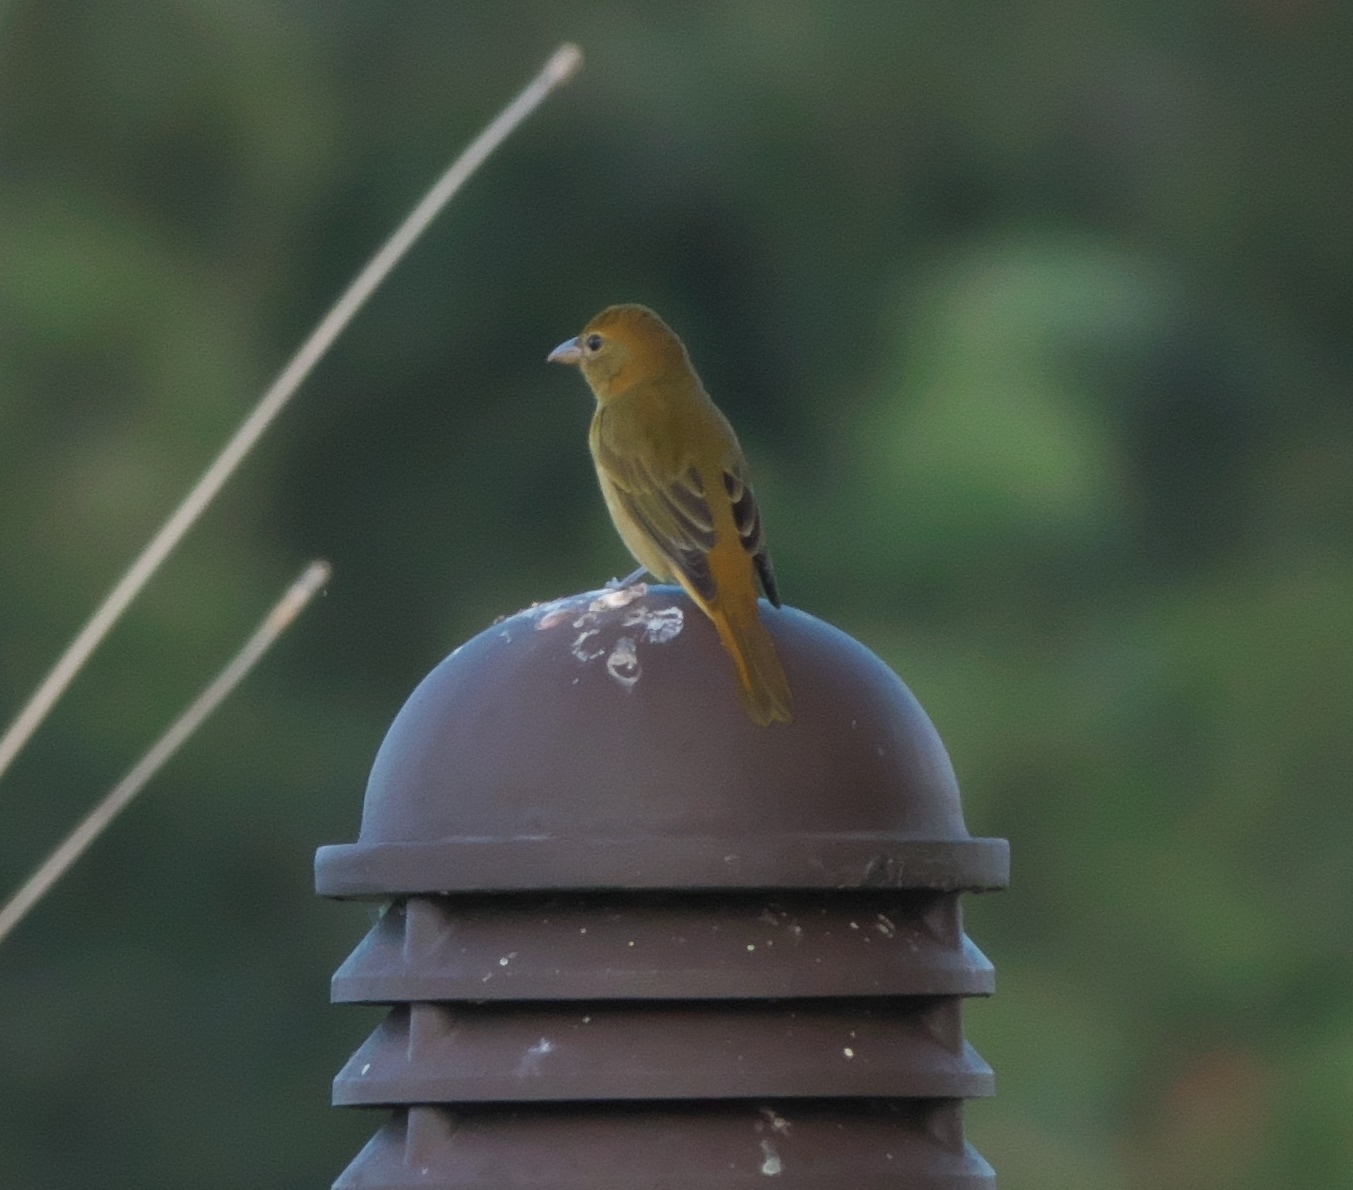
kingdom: Animalia
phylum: Chordata
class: Aves
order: Passeriformes
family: Cardinalidae
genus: Piranga
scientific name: Piranga rubra
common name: Summer tanager
